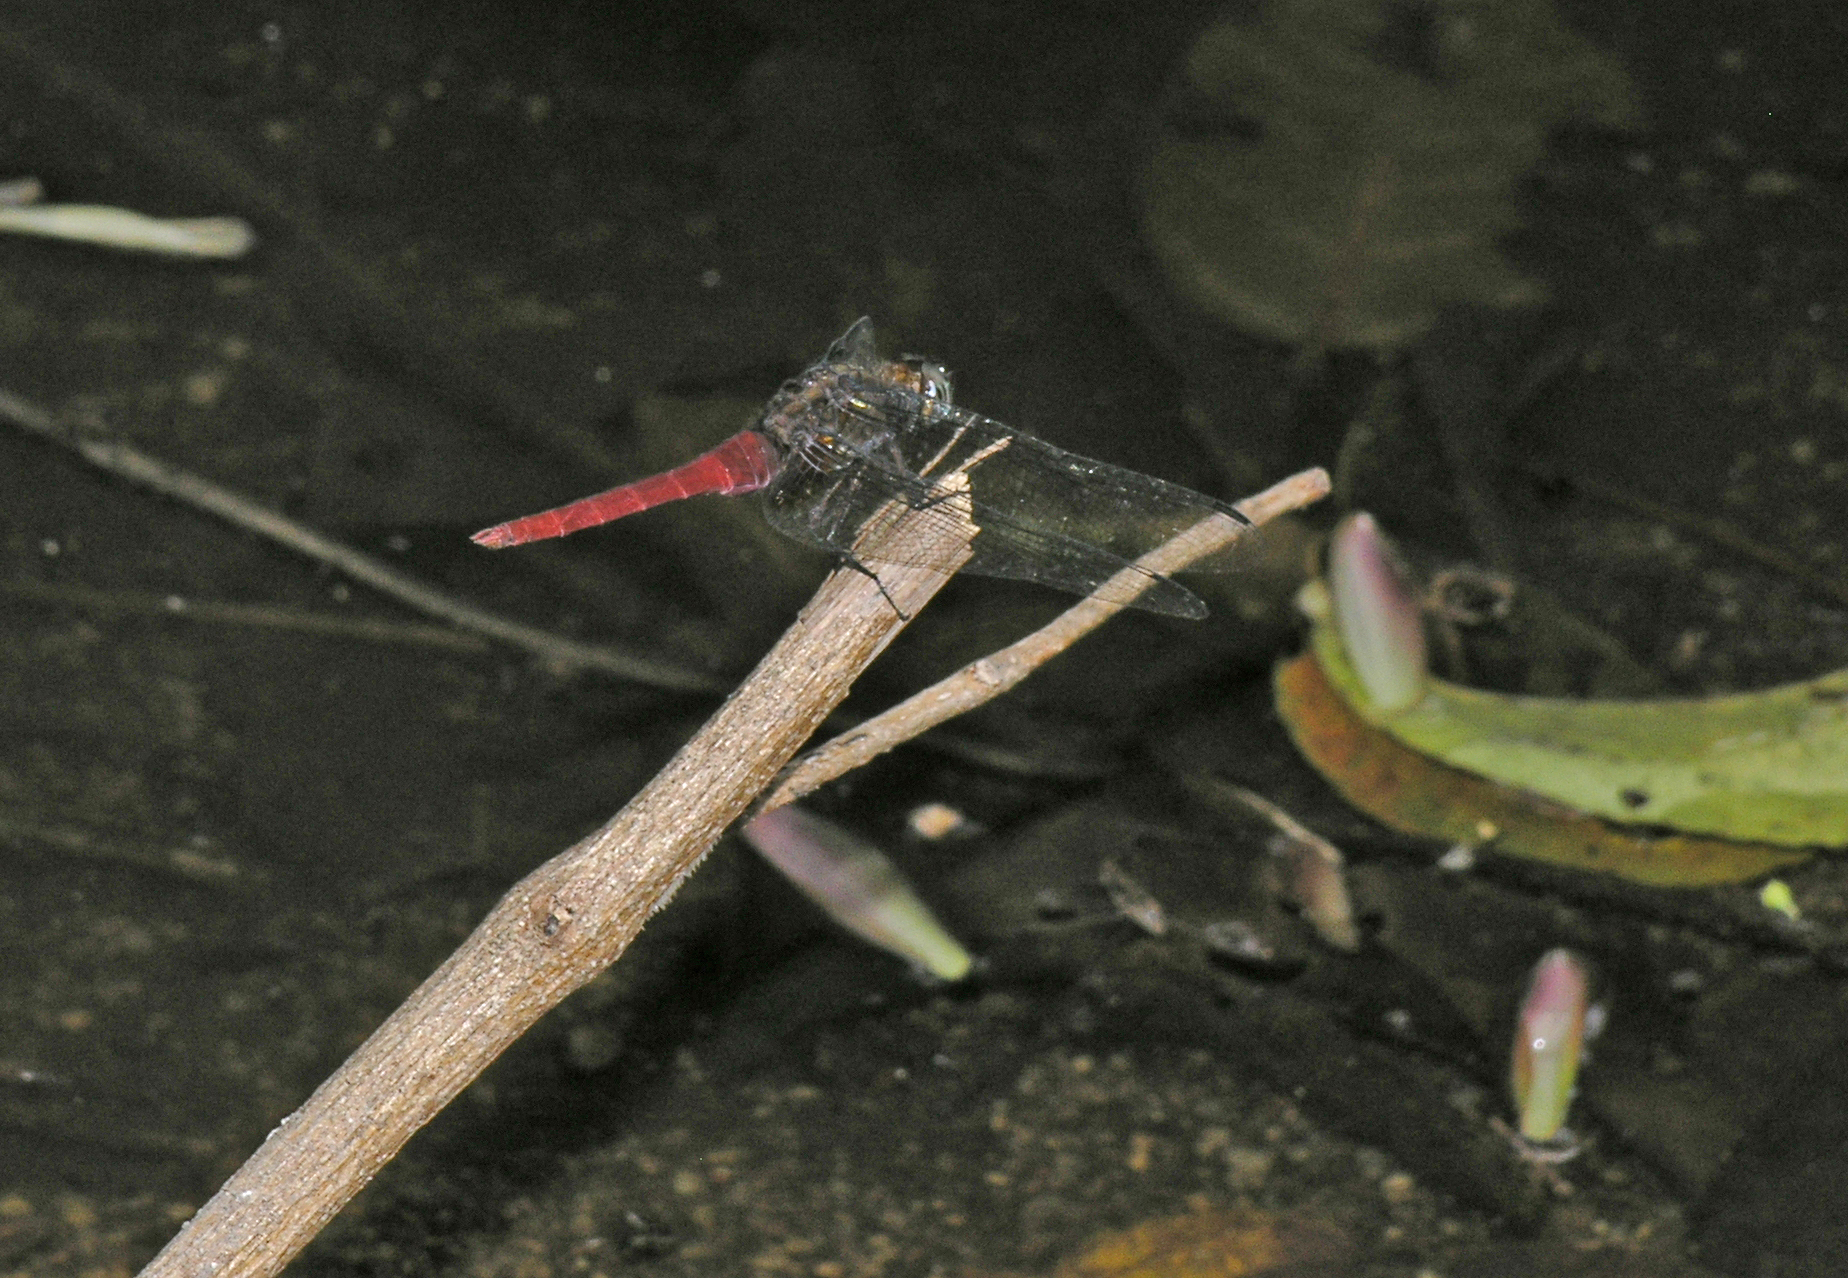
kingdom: Animalia
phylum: Arthropoda
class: Insecta
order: Odonata
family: Libellulidae
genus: Orthetrum
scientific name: Orthetrum chrysis
